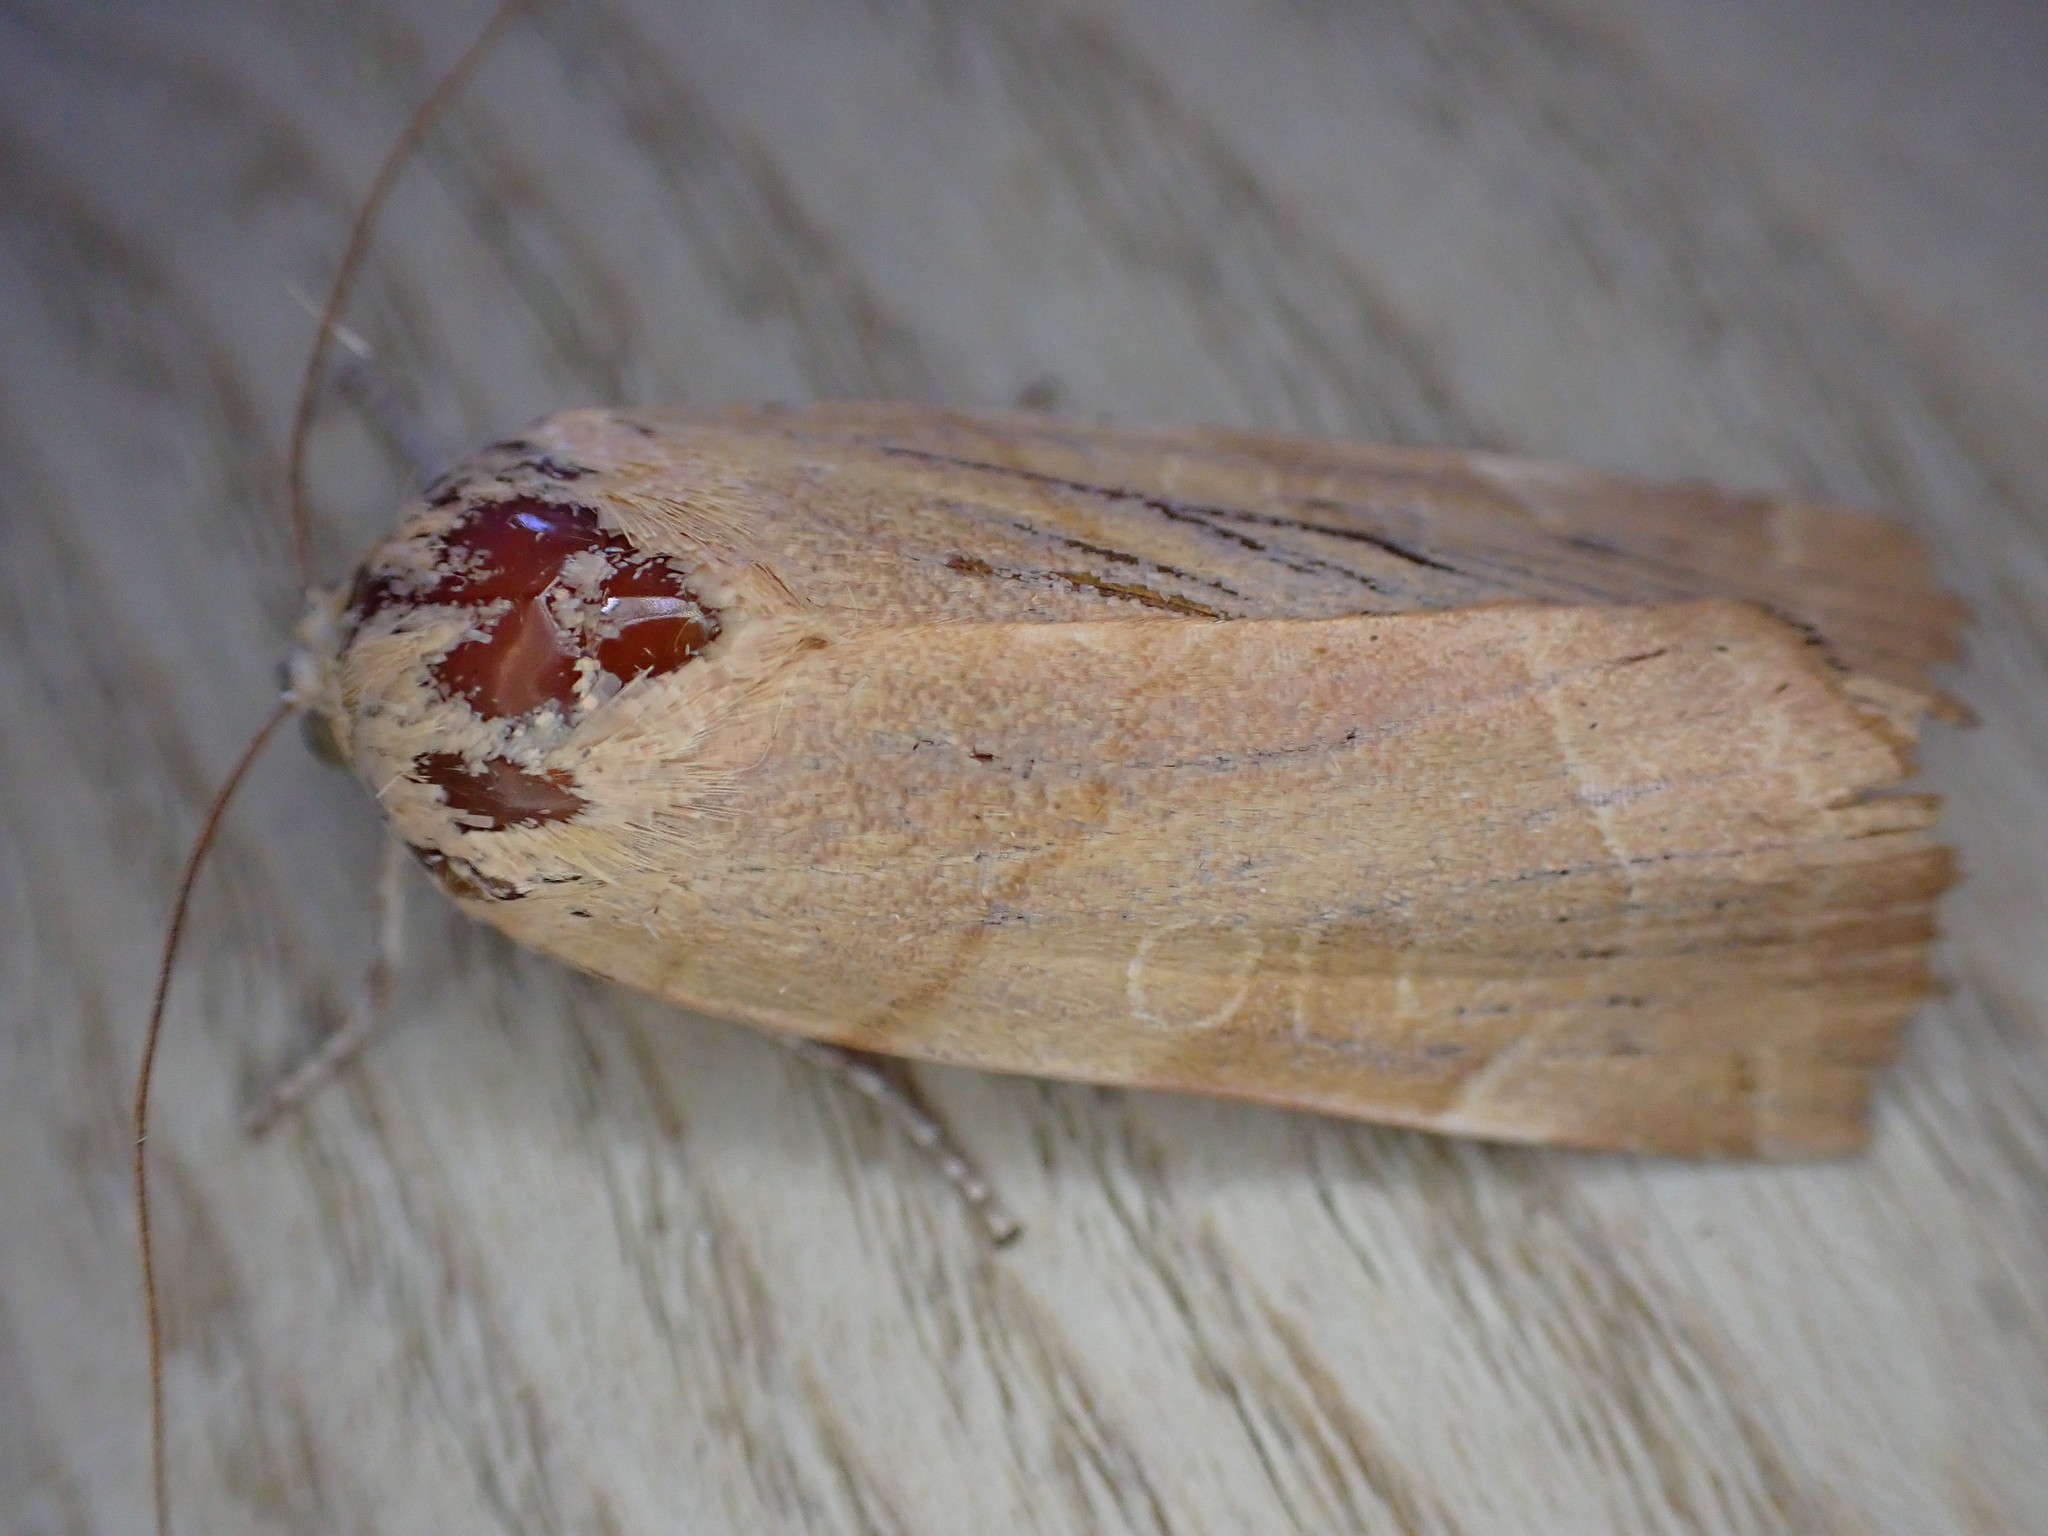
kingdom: Animalia
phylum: Arthropoda
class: Insecta
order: Lepidoptera
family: Noctuidae
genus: Noctua
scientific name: Noctua fimbriata
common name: Broad-bordered yellow underwing
